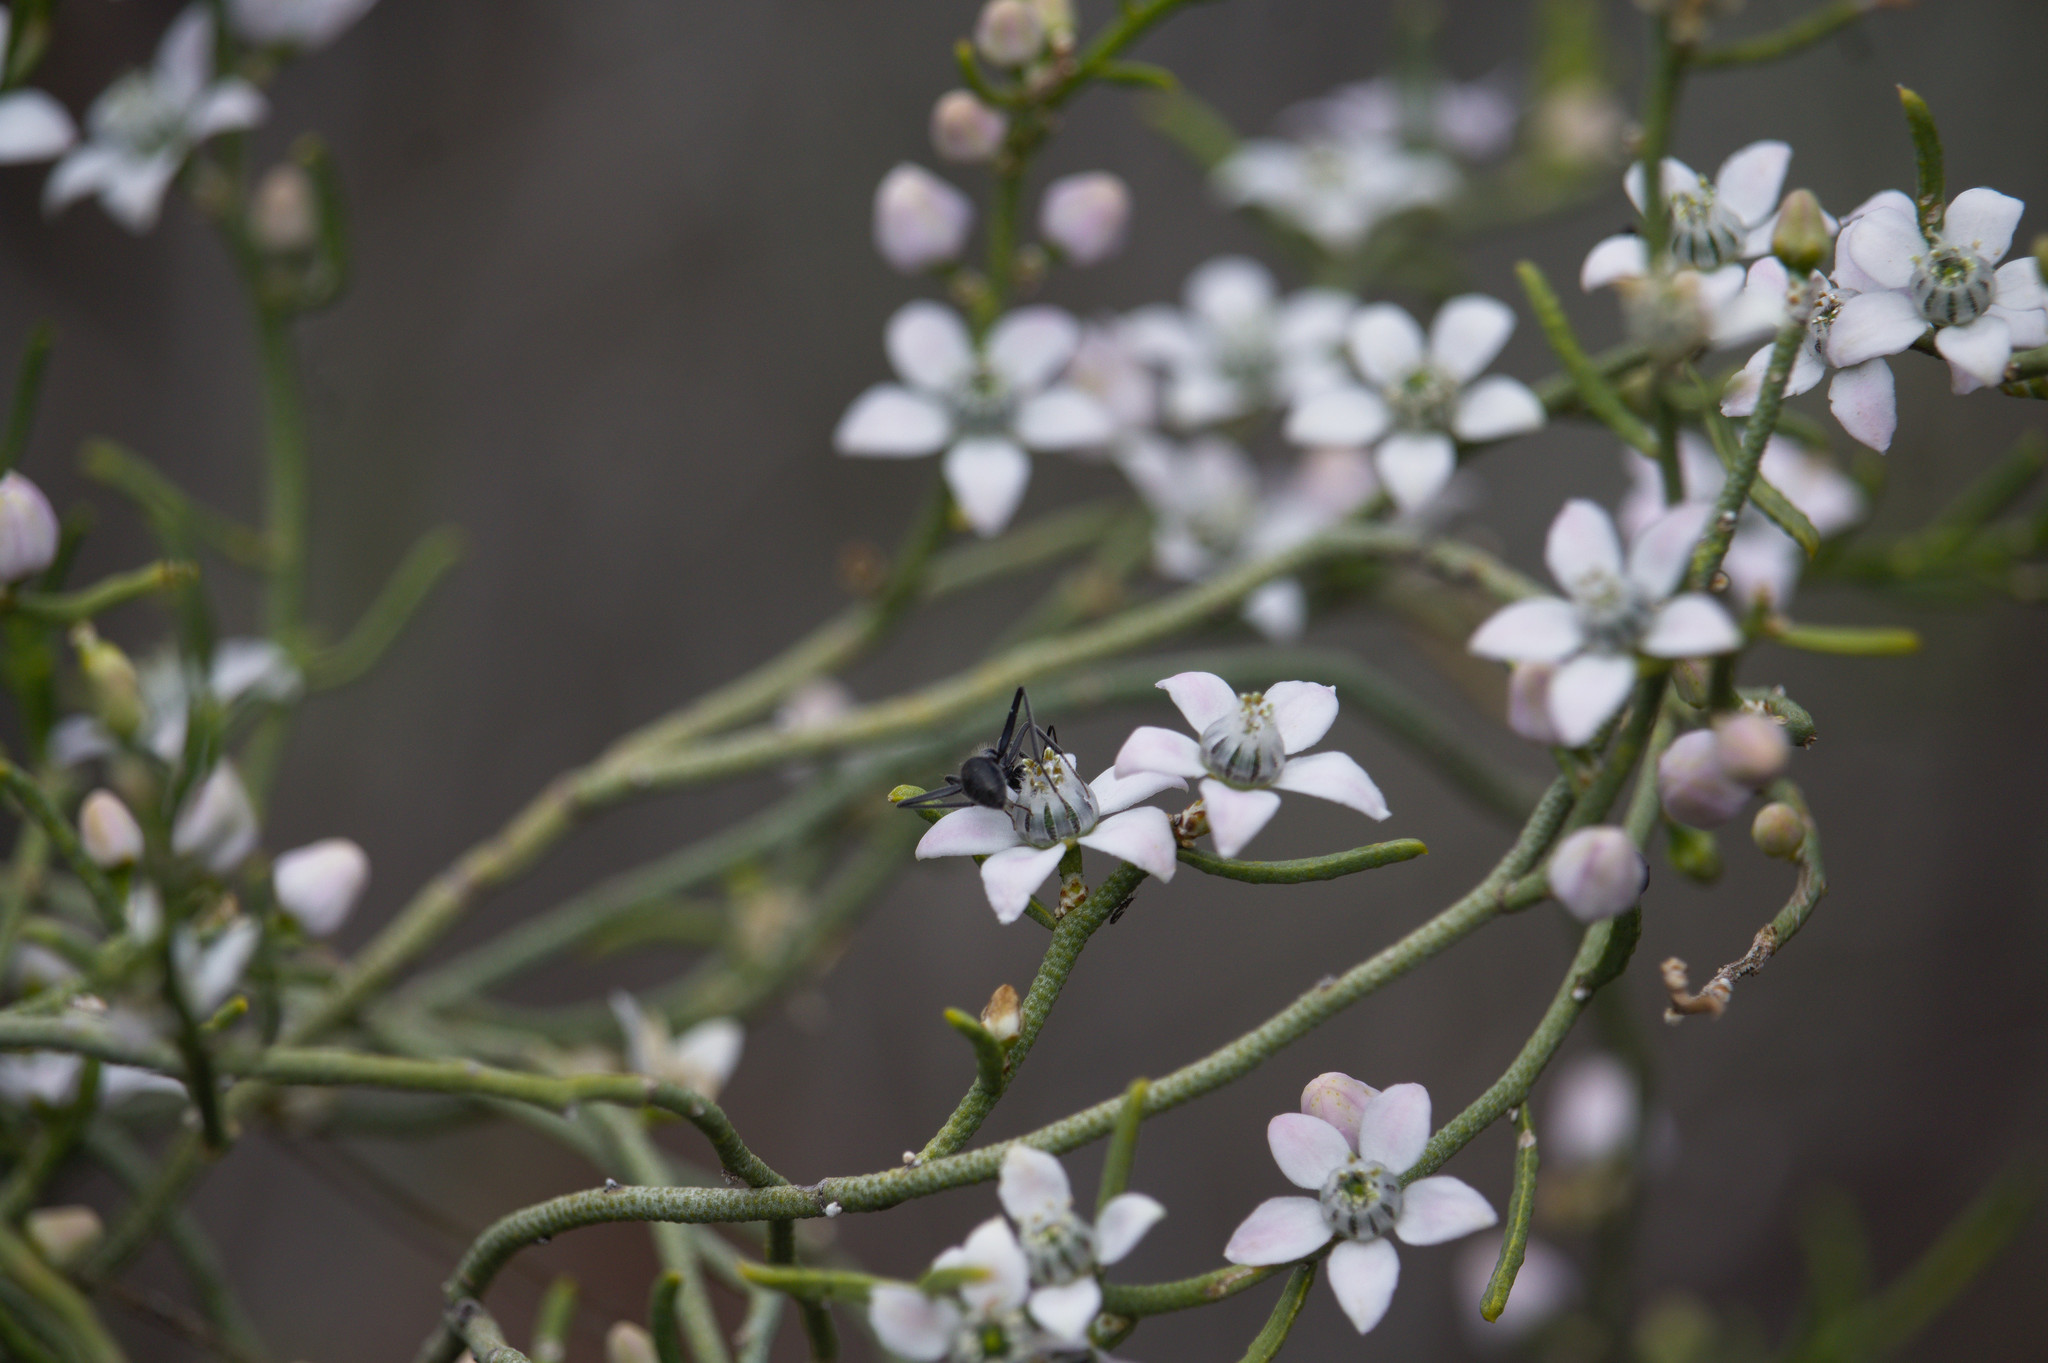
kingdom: Plantae
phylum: Tracheophyta
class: Magnoliopsida
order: Sapindales
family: Rutaceae
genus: Philotheca
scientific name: Philotheca brucei
